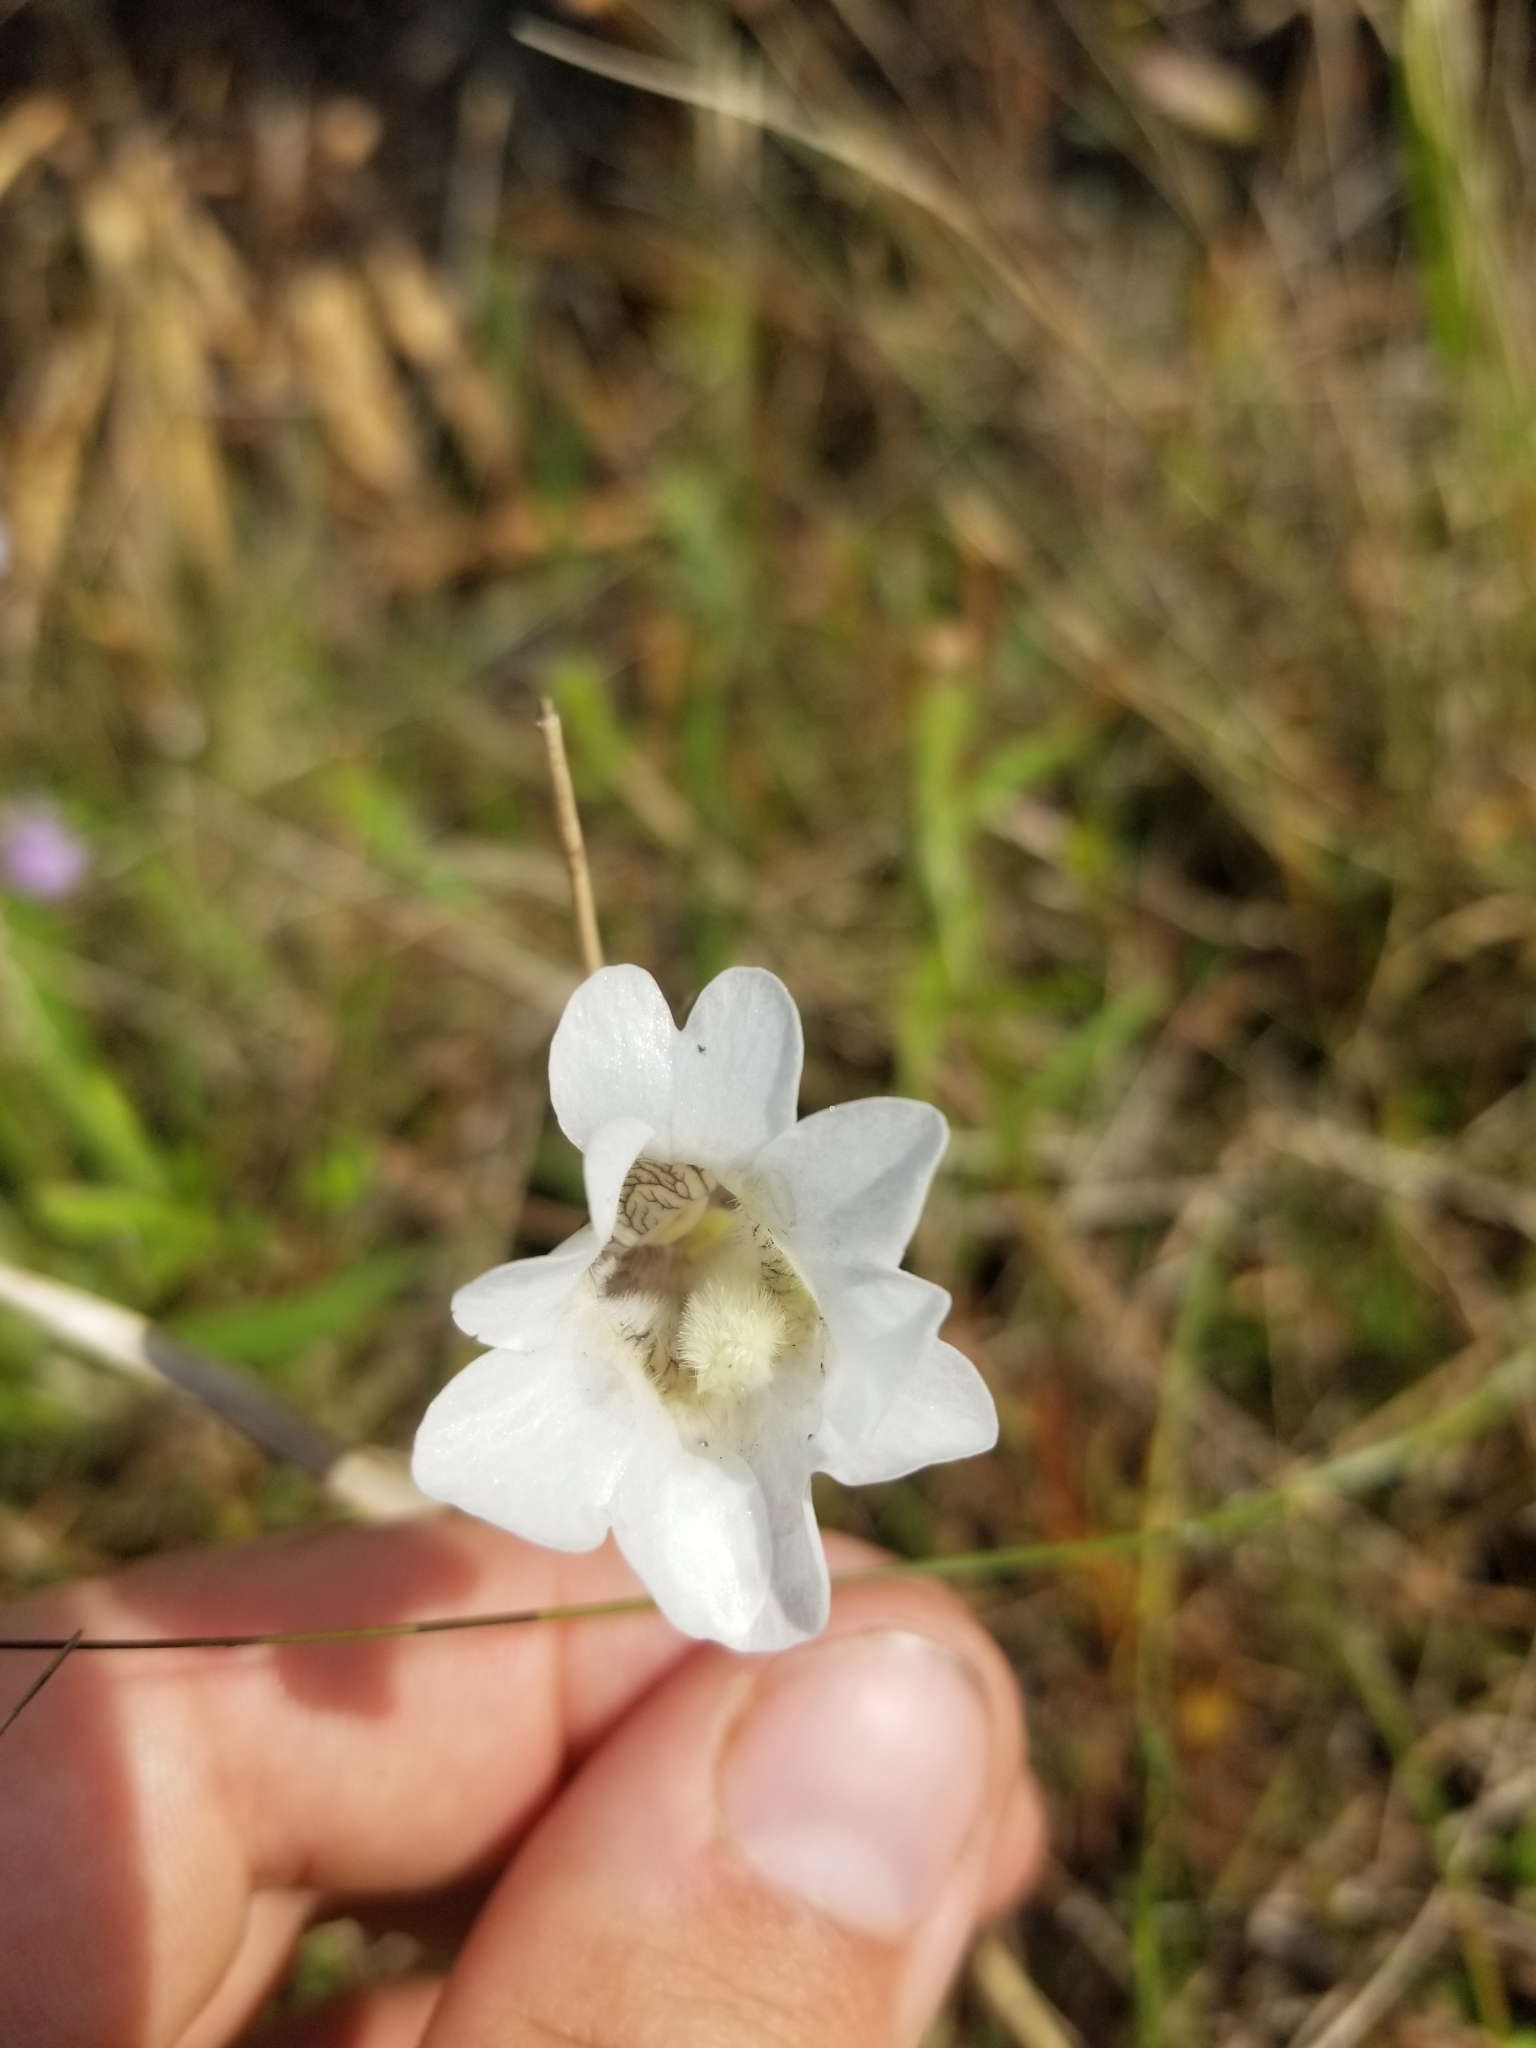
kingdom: Plantae
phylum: Tracheophyta
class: Magnoliopsida
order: Lamiales
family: Lentibulariaceae
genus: Pinguicula
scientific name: Pinguicula caerulea
